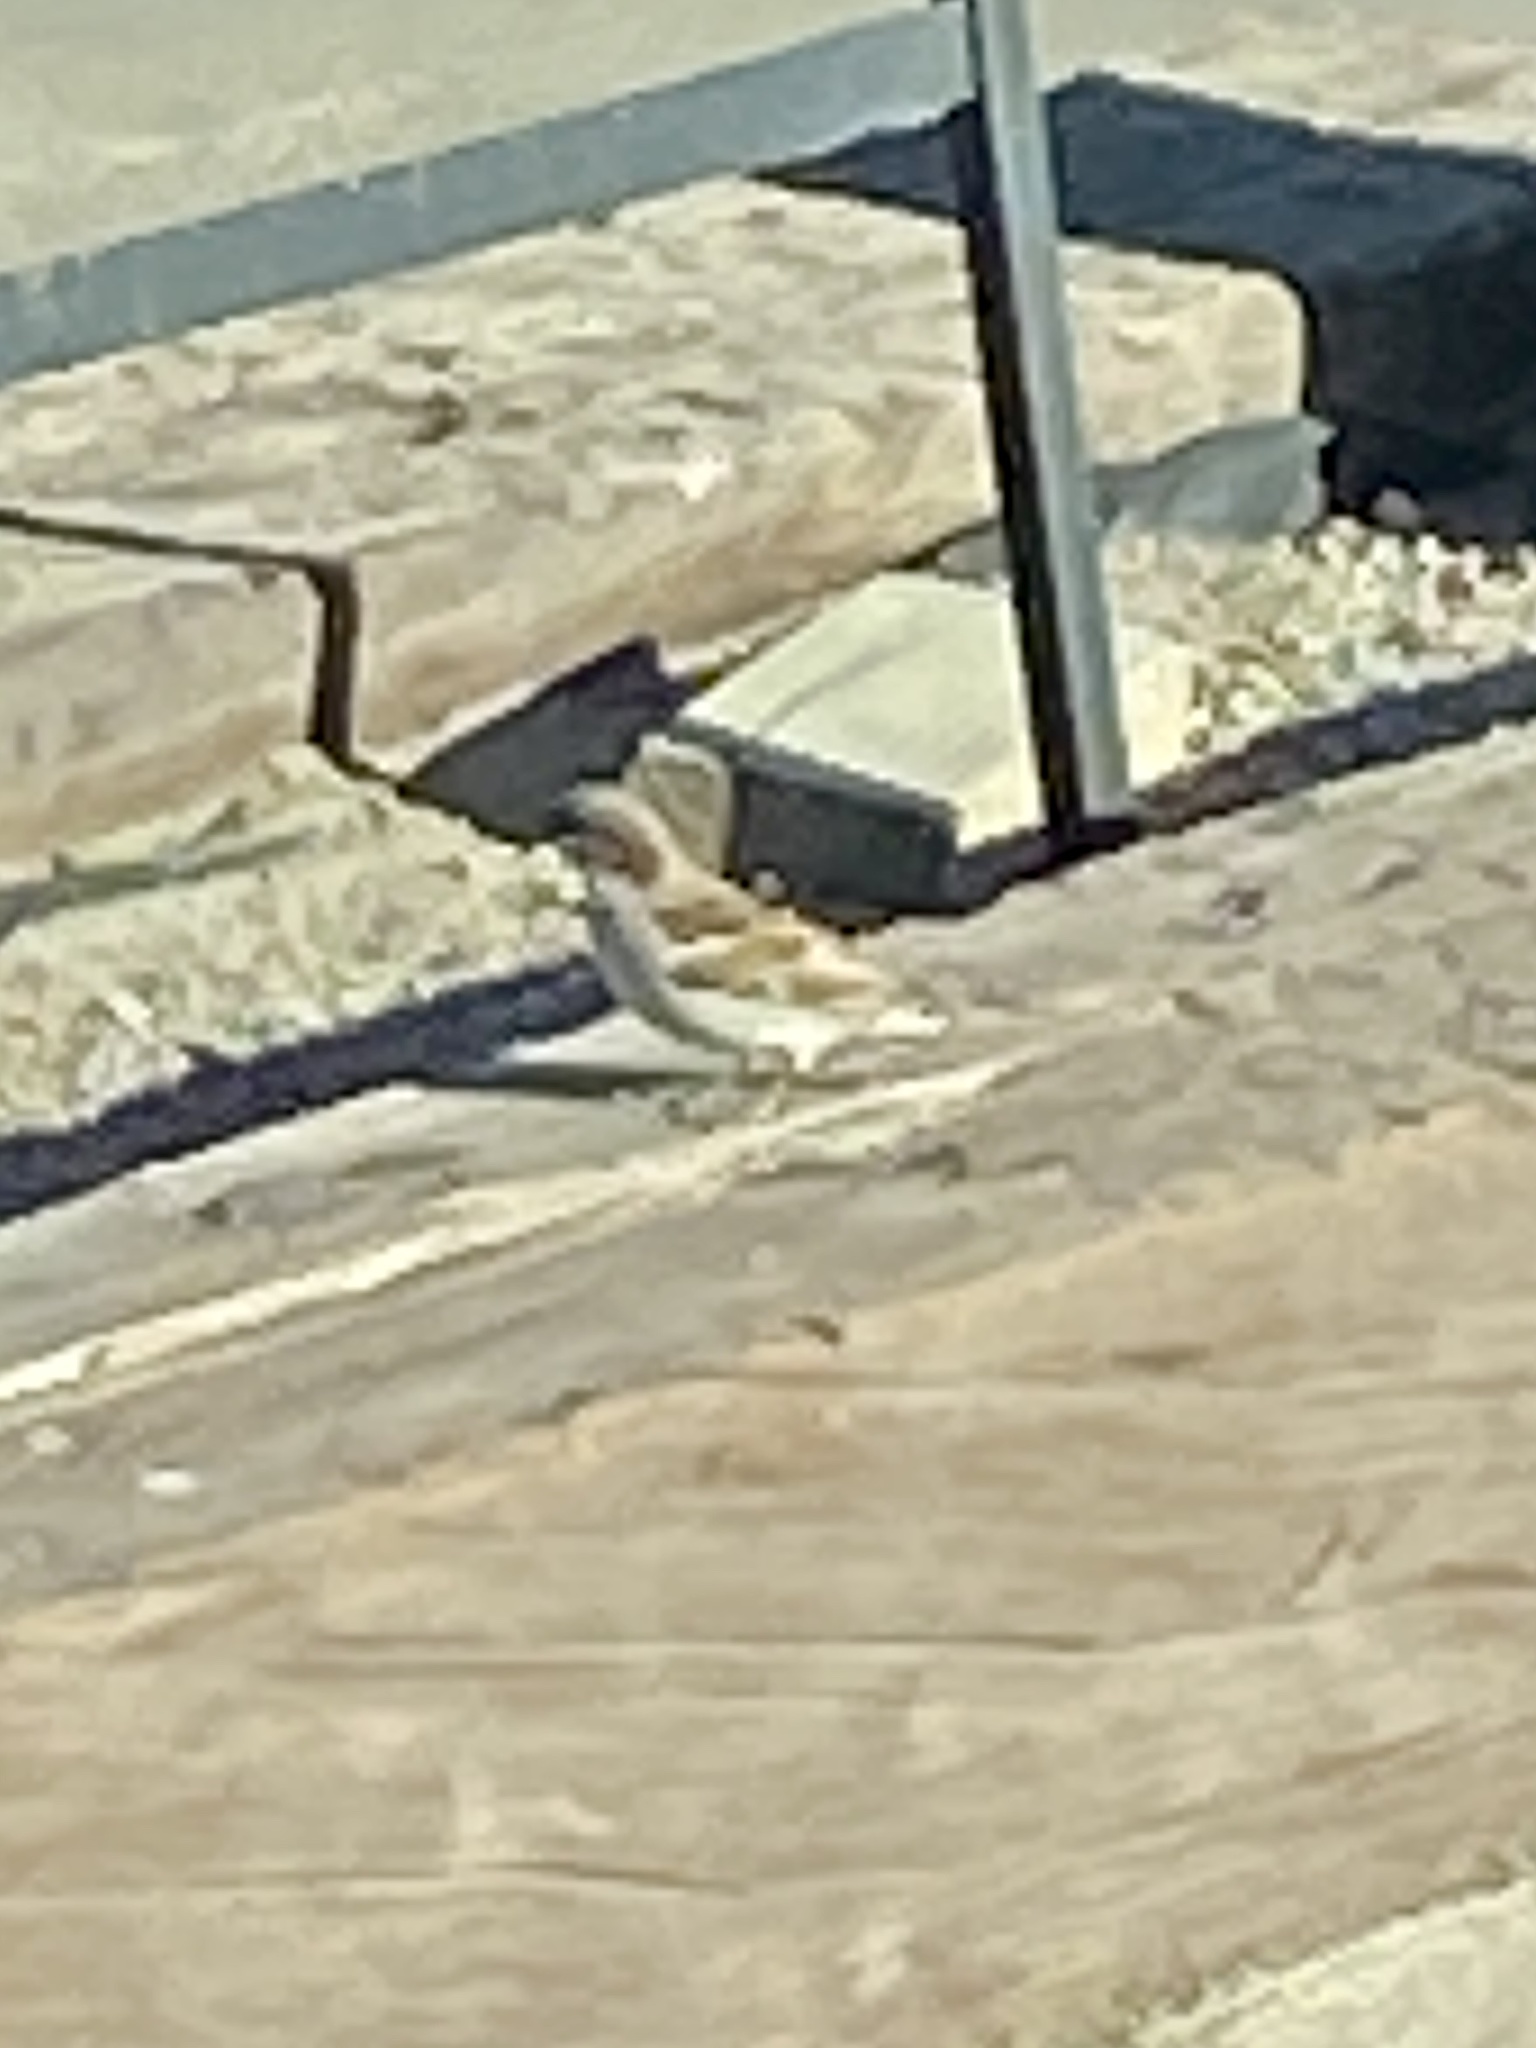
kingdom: Animalia
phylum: Chordata
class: Aves
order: Passeriformes
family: Passeridae
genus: Passer
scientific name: Passer domesticus
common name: House sparrow
